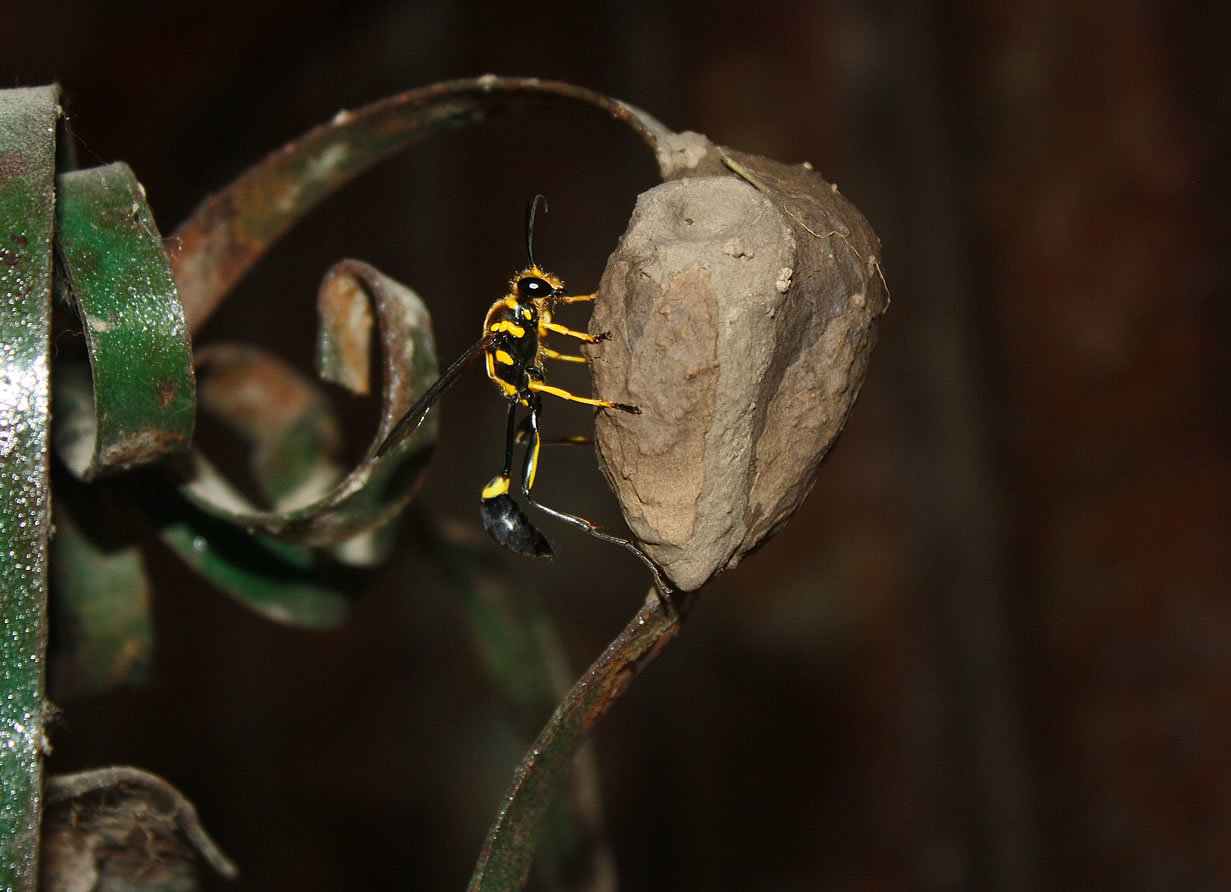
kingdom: Animalia
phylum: Arthropoda
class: Insecta
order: Hymenoptera
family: Sphecidae
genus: Sceliphron
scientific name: Sceliphron fistularium
